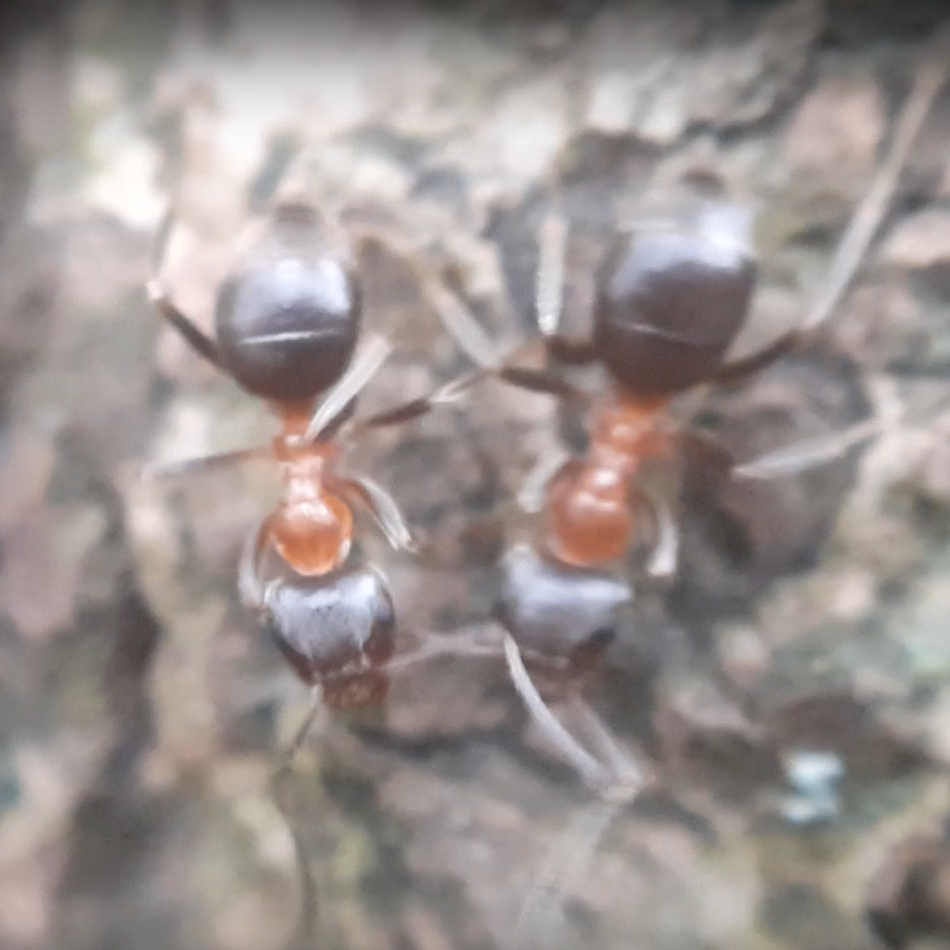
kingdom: Animalia
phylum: Arthropoda
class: Insecta
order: Hymenoptera
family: Formicidae
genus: Lasius
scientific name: Lasius emarginatus
